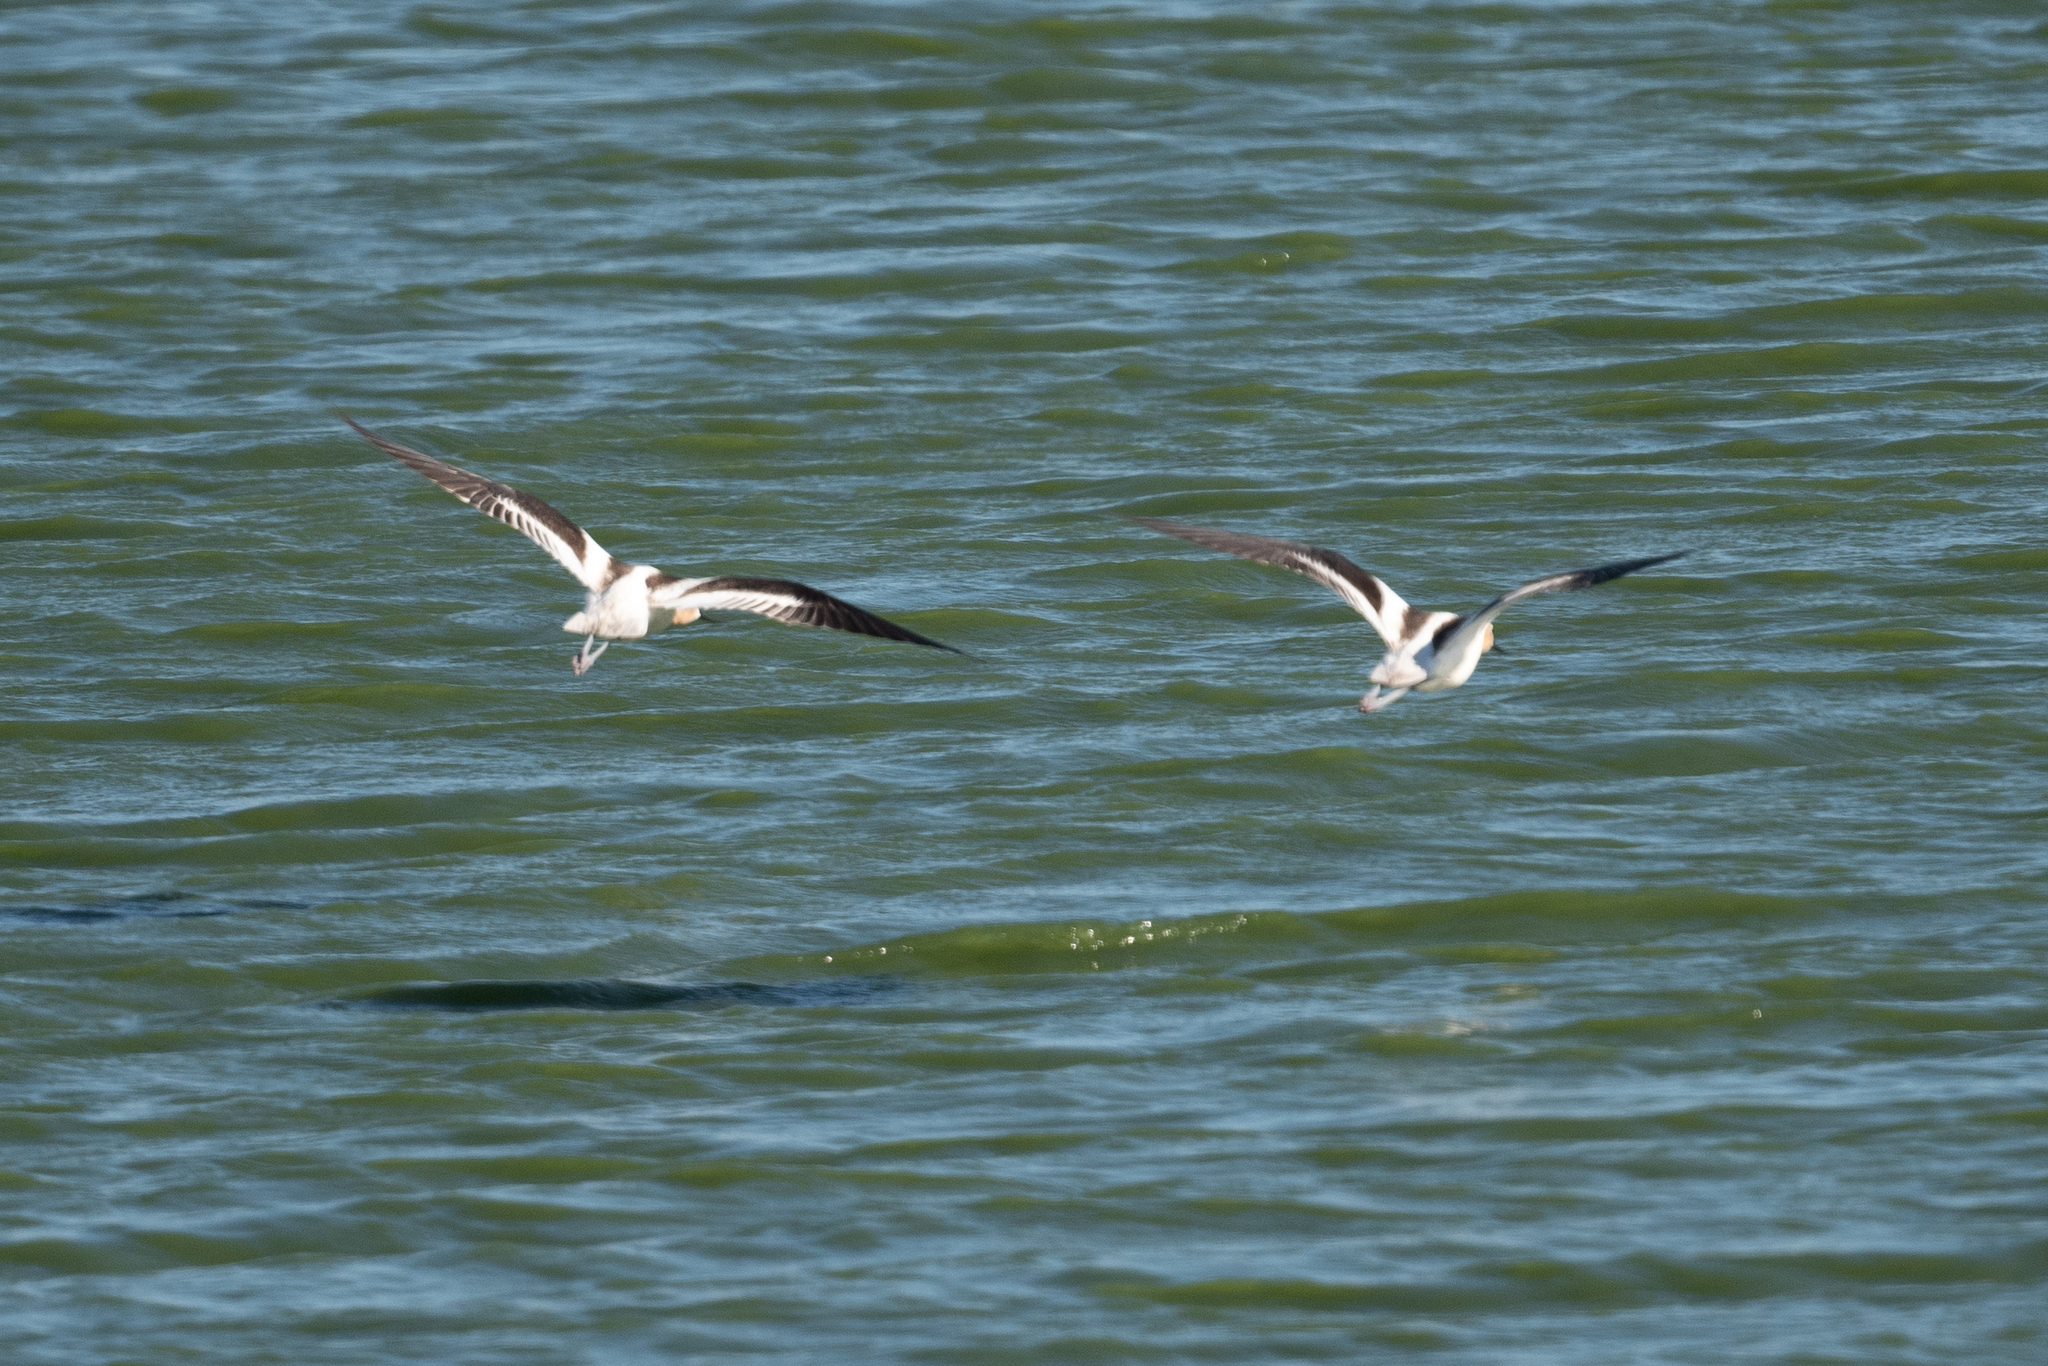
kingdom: Animalia
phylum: Chordata
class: Aves
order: Charadriiformes
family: Recurvirostridae
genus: Recurvirostra
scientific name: Recurvirostra americana
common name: American avocet
